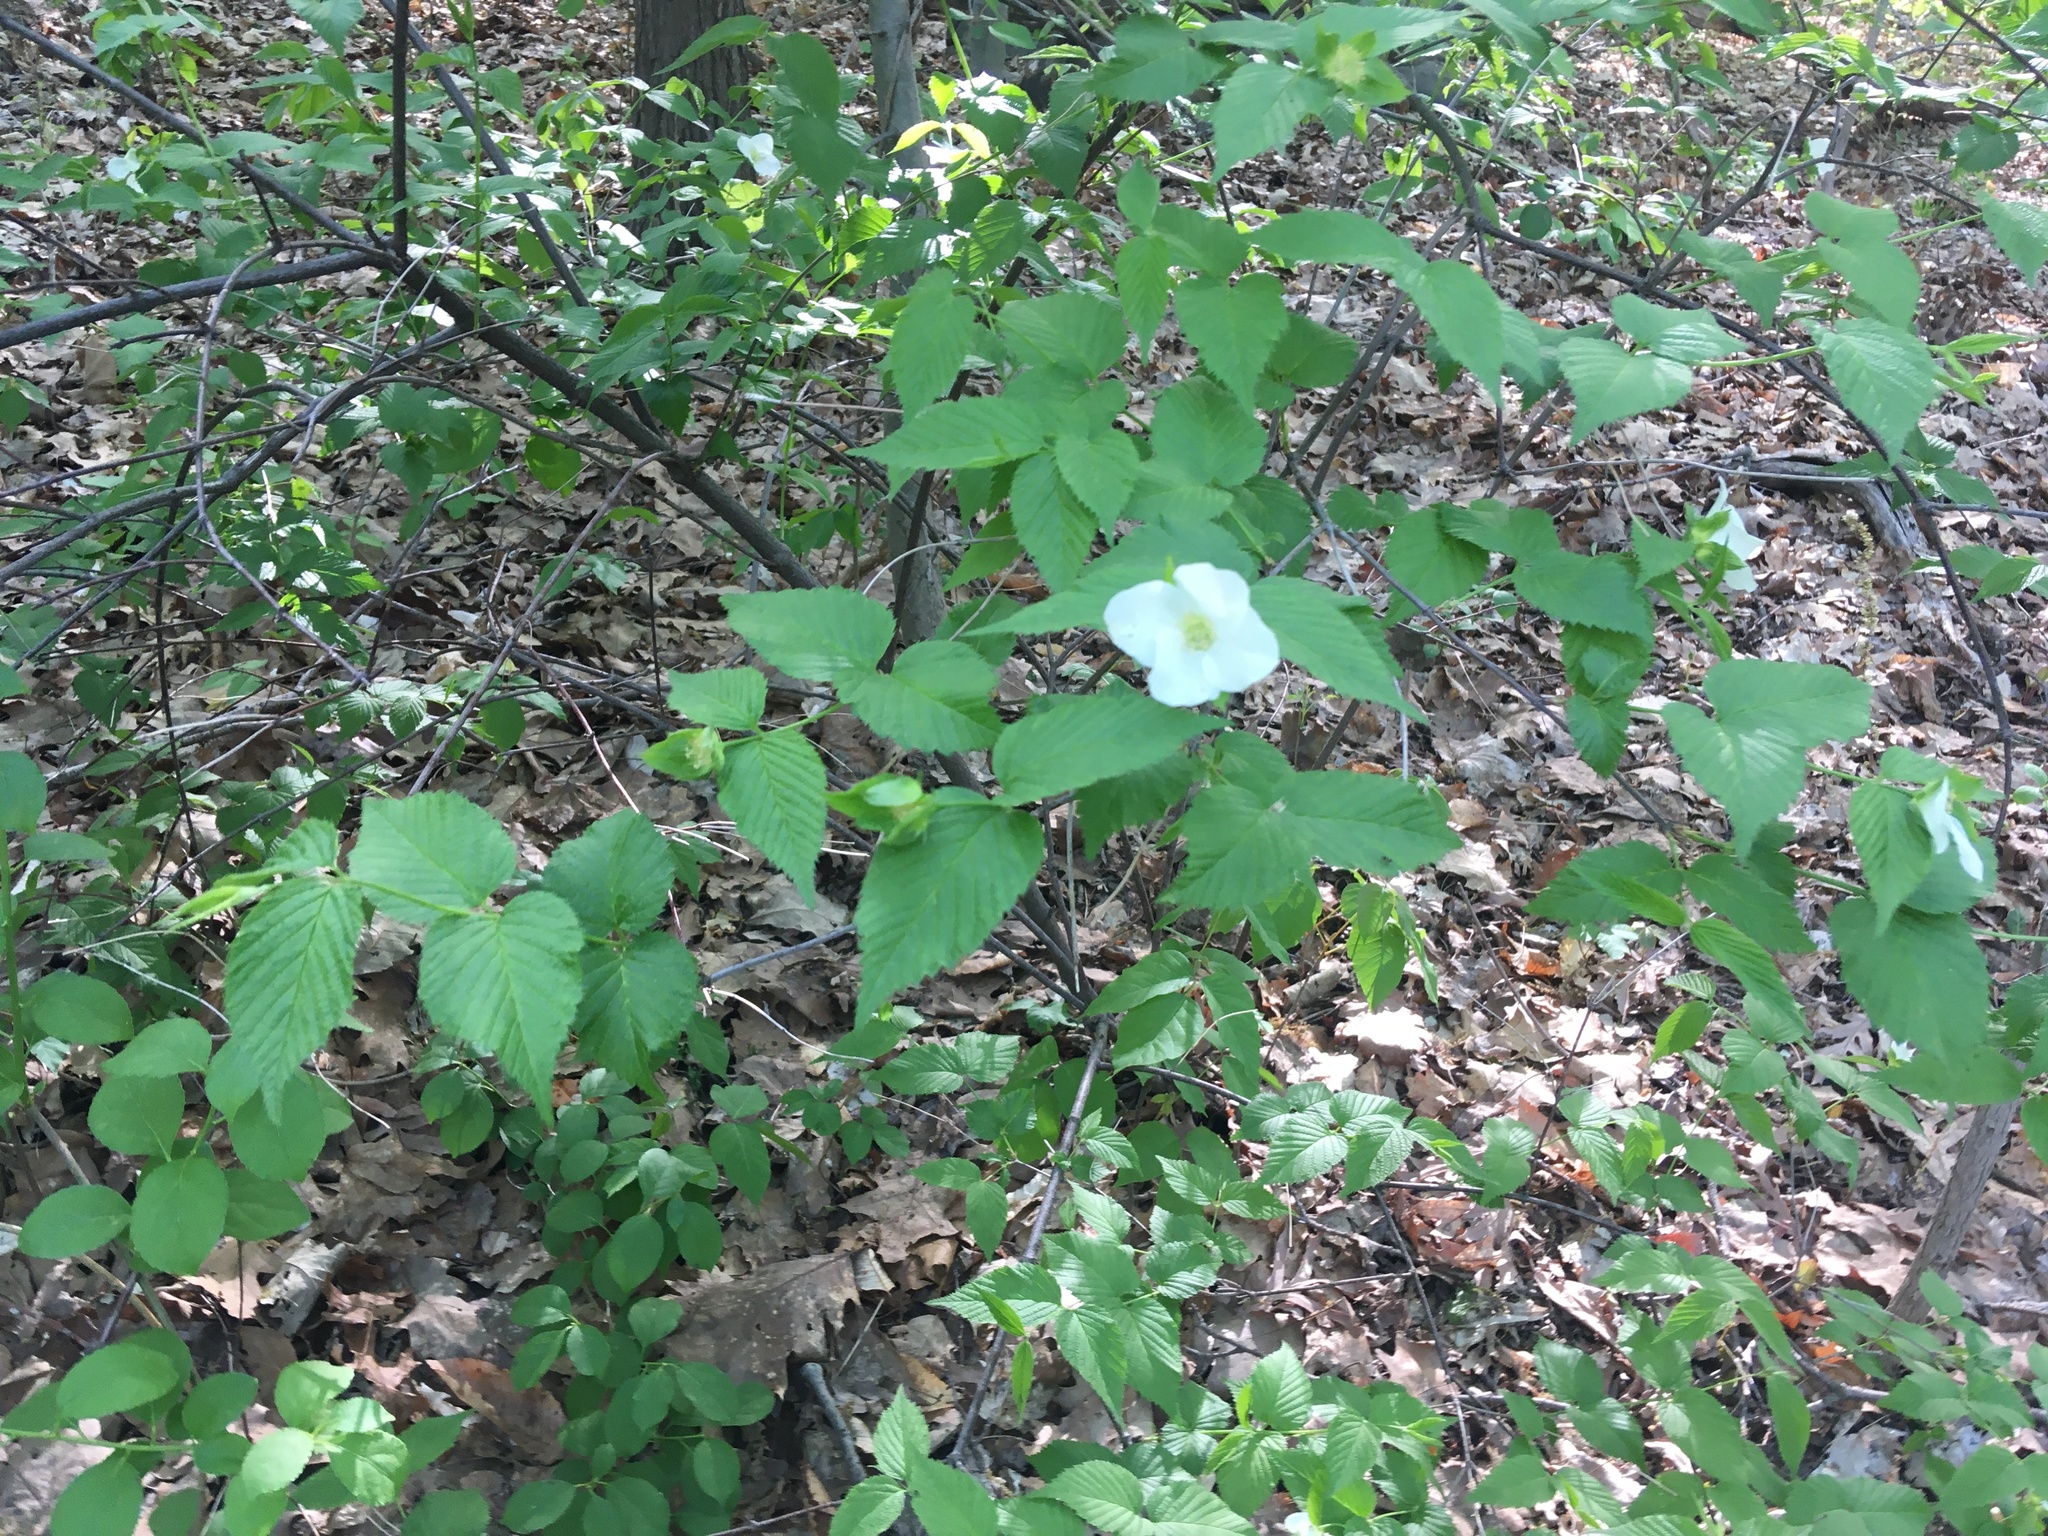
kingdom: Plantae
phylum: Tracheophyta
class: Magnoliopsida
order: Rosales
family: Rosaceae
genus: Rhodotypos
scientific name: Rhodotypos scandens
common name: Jetbead
